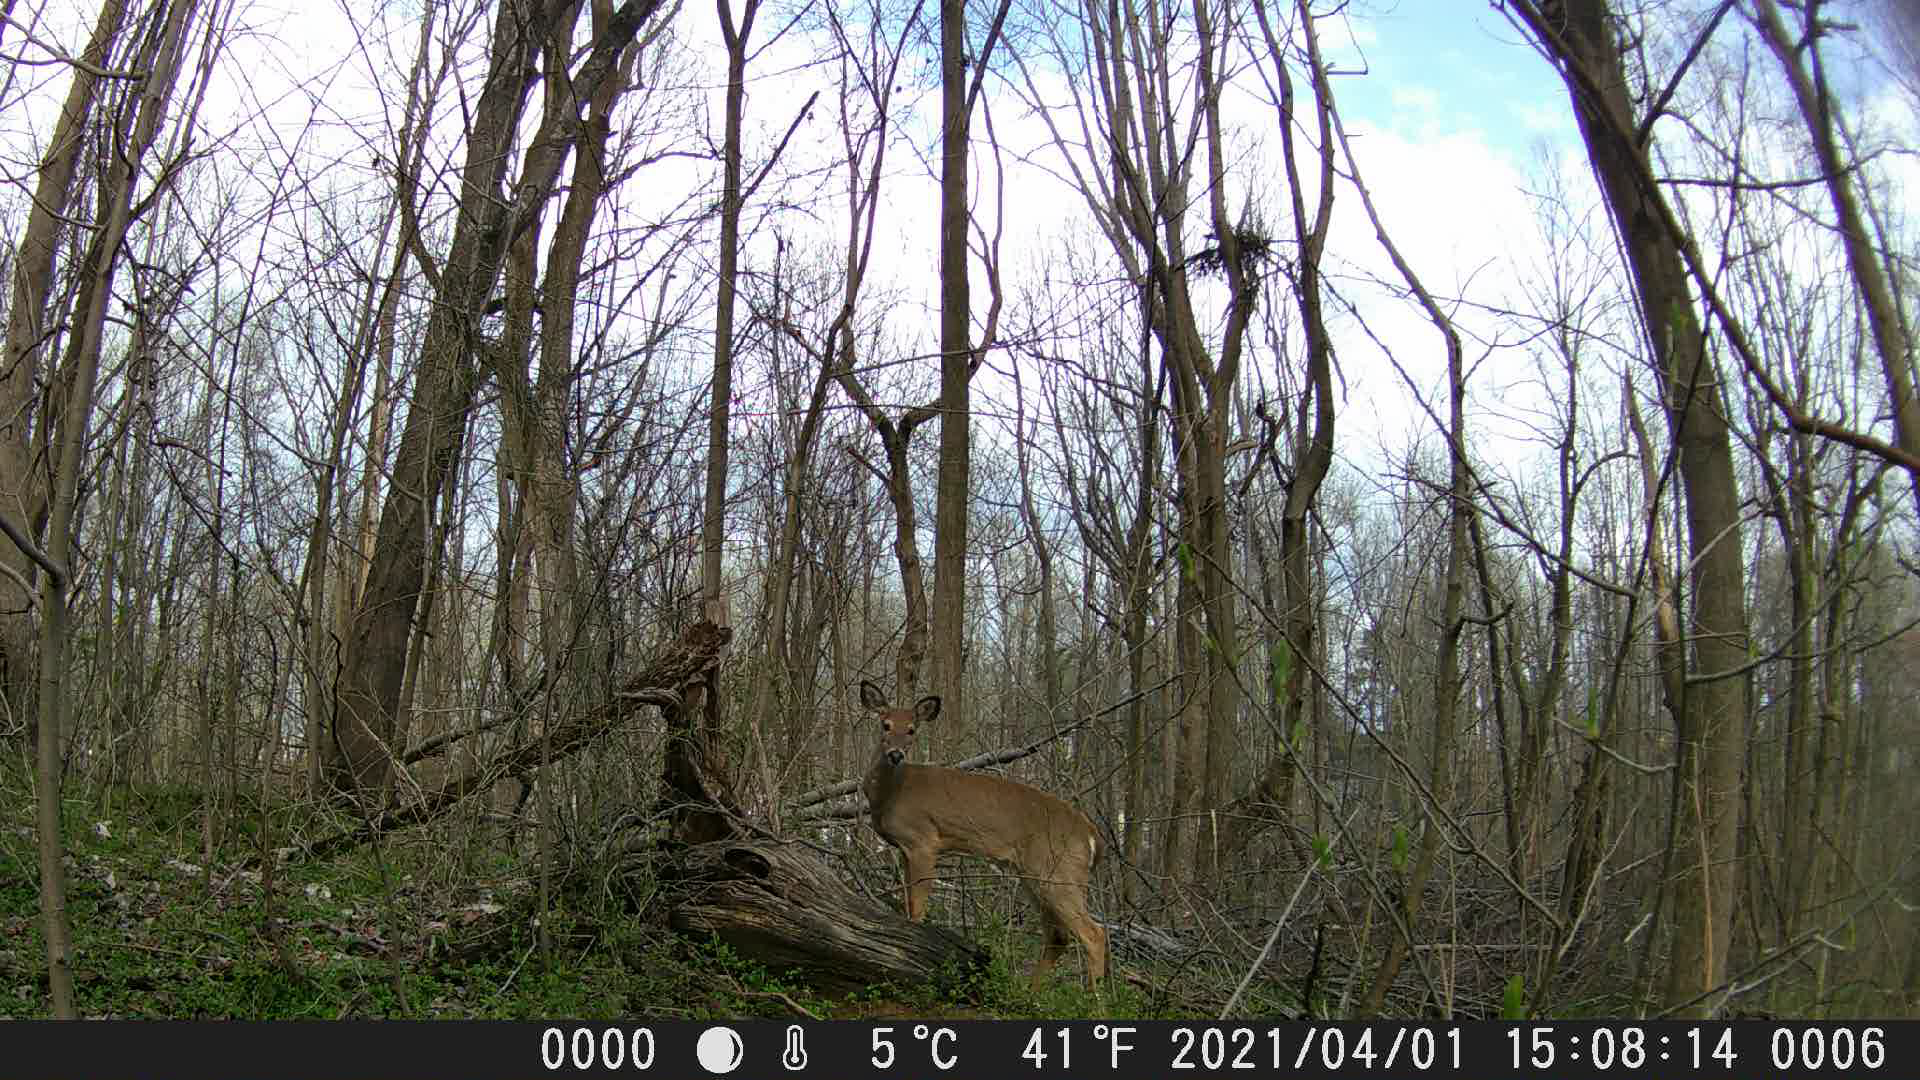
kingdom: Animalia
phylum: Chordata
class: Mammalia
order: Artiodactyla
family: Cervidae
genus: Odocoileus
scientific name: Odocoileus virginianus
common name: White-tailed deer
